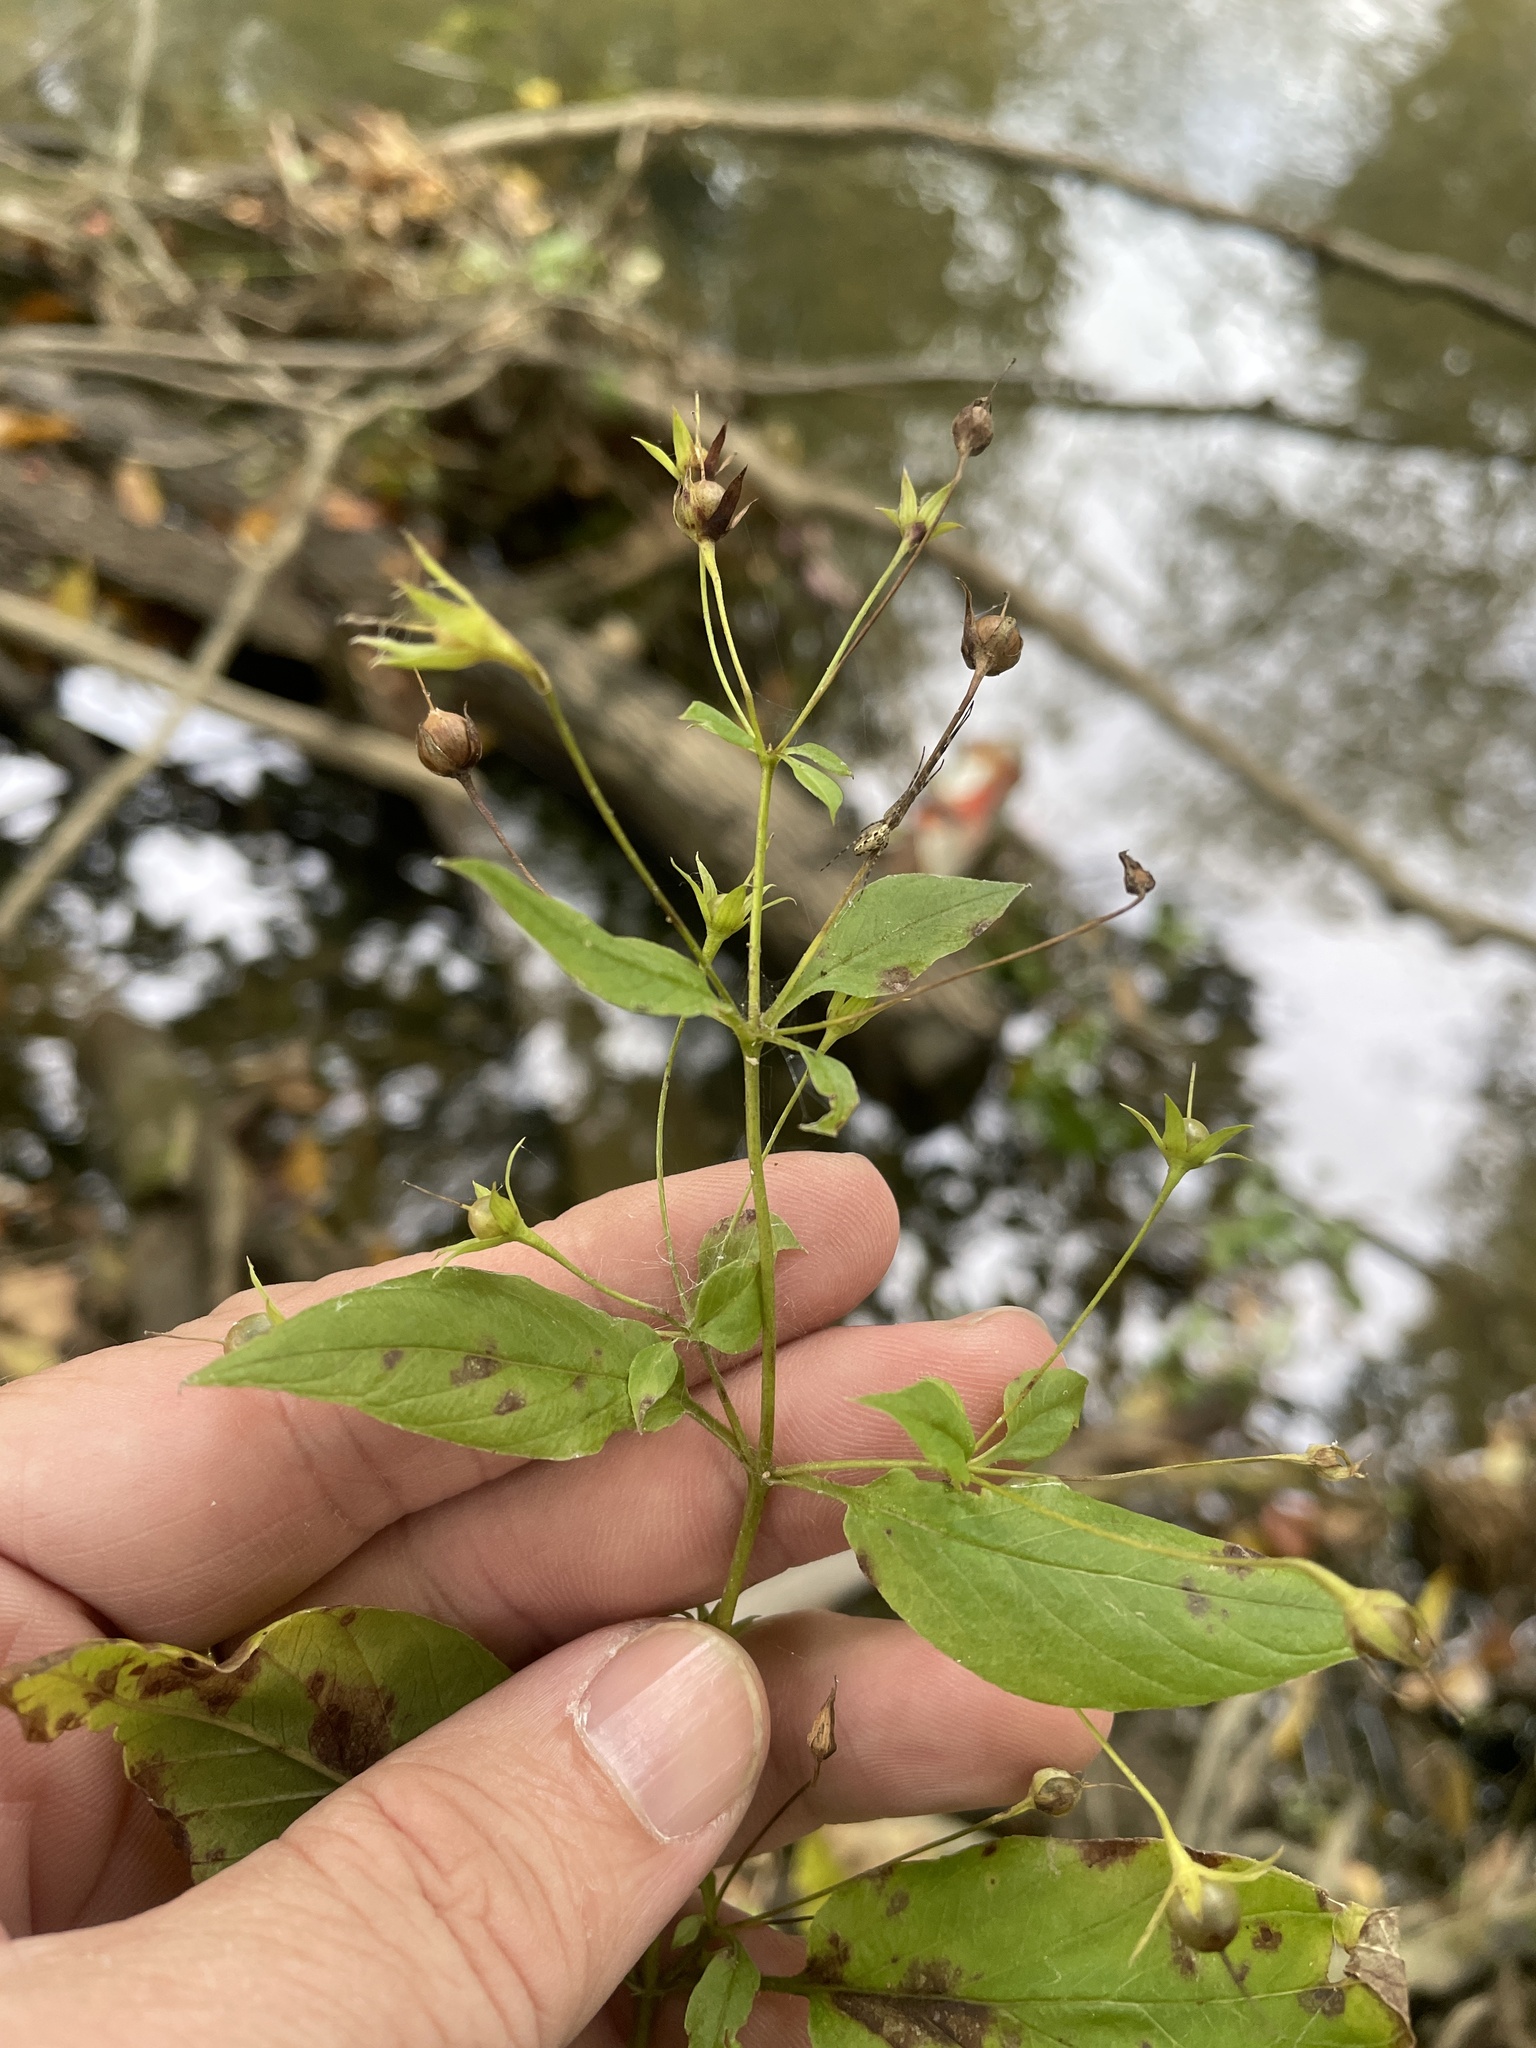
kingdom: Plantae
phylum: Tracheophyta
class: Magnoliopsida
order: Ericales
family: Primulaceae
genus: Lysimachia
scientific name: Lysimachia ciliata
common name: Fringed loosestrife
